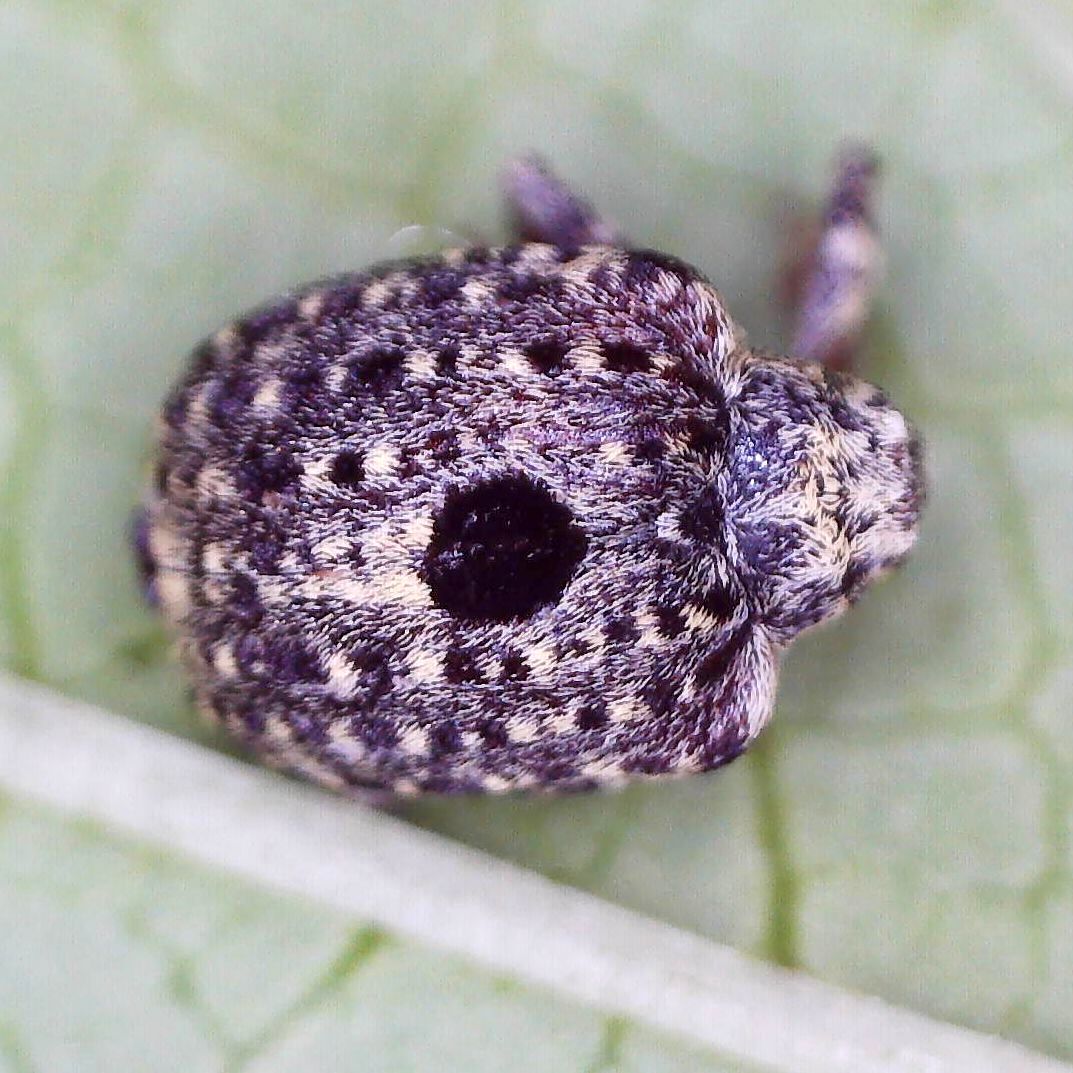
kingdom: Animalia
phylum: Arthropoda
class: Insecta
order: Coleoptera
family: Curculionidae
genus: Cionus
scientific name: Cionus hortulanus
